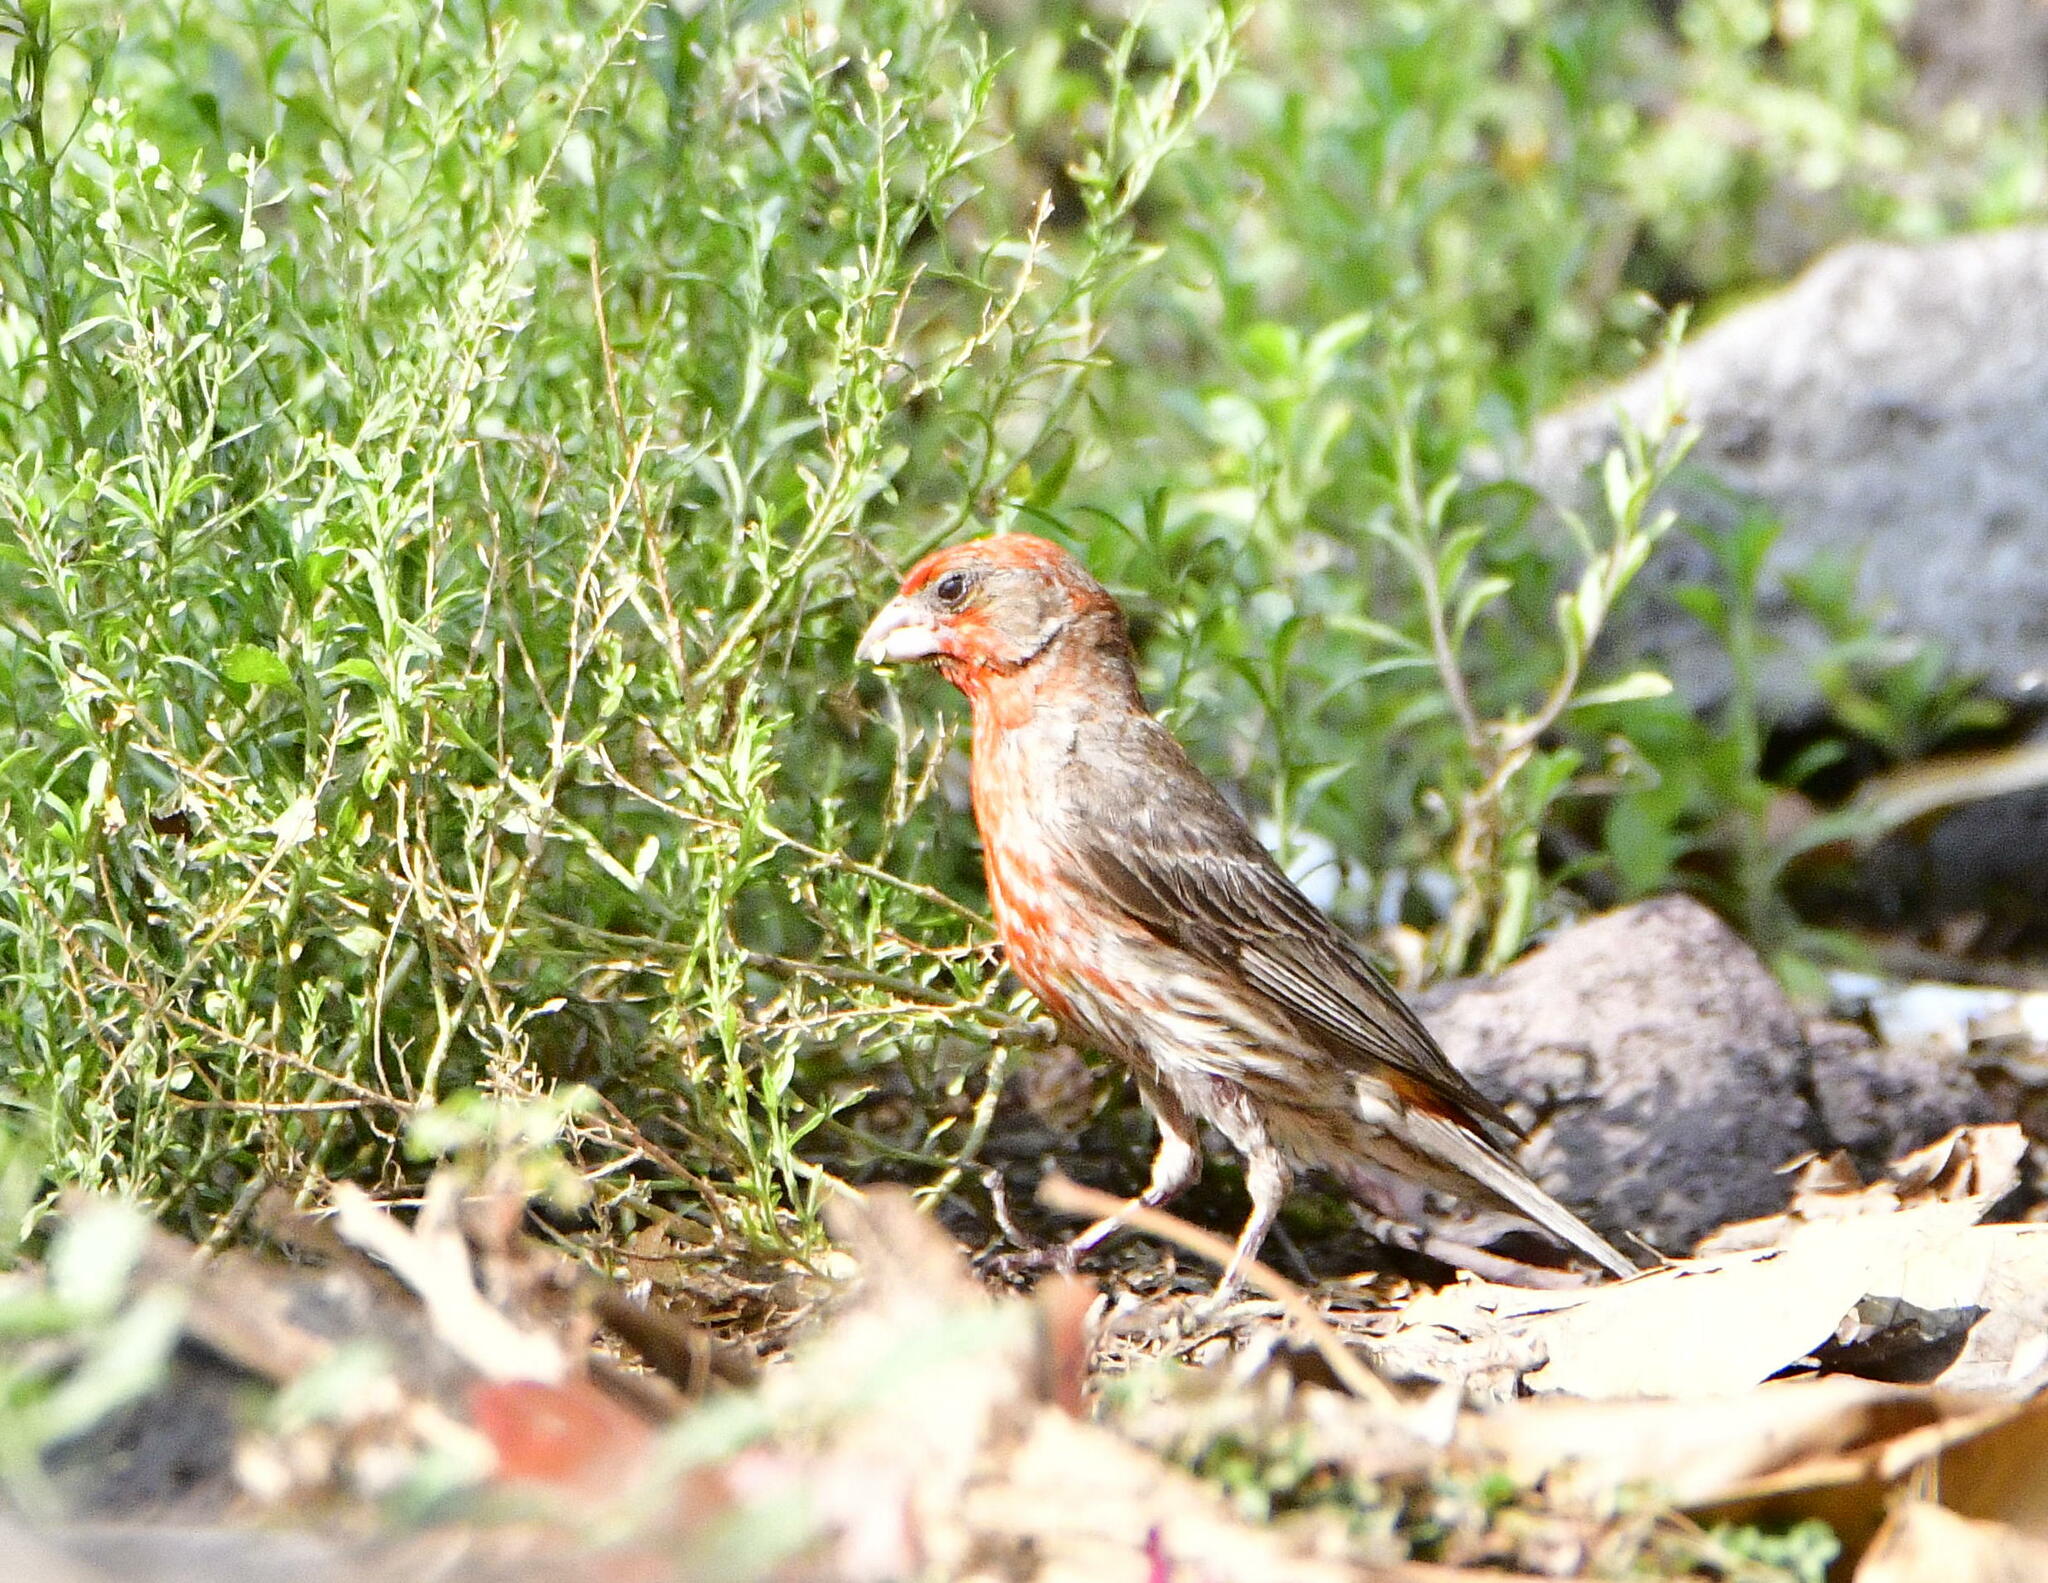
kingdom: Animalia
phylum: Chordata
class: Aves
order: Passeriformes
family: Fringillidae
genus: Haemorhous
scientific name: Haemorhous mexicanus
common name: House finch
